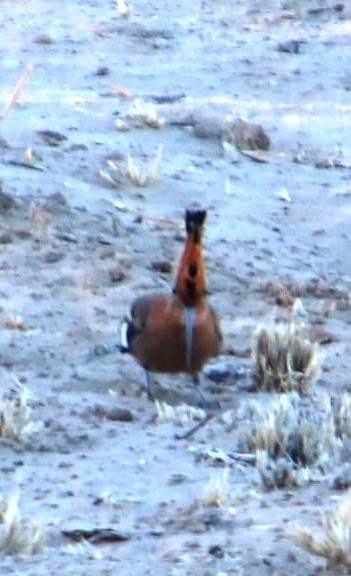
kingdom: Animalia
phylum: Chordata
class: Aves
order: Bucerotiformes
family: Upupidae
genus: Upupa
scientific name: Upupa africana
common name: African hoopoe
